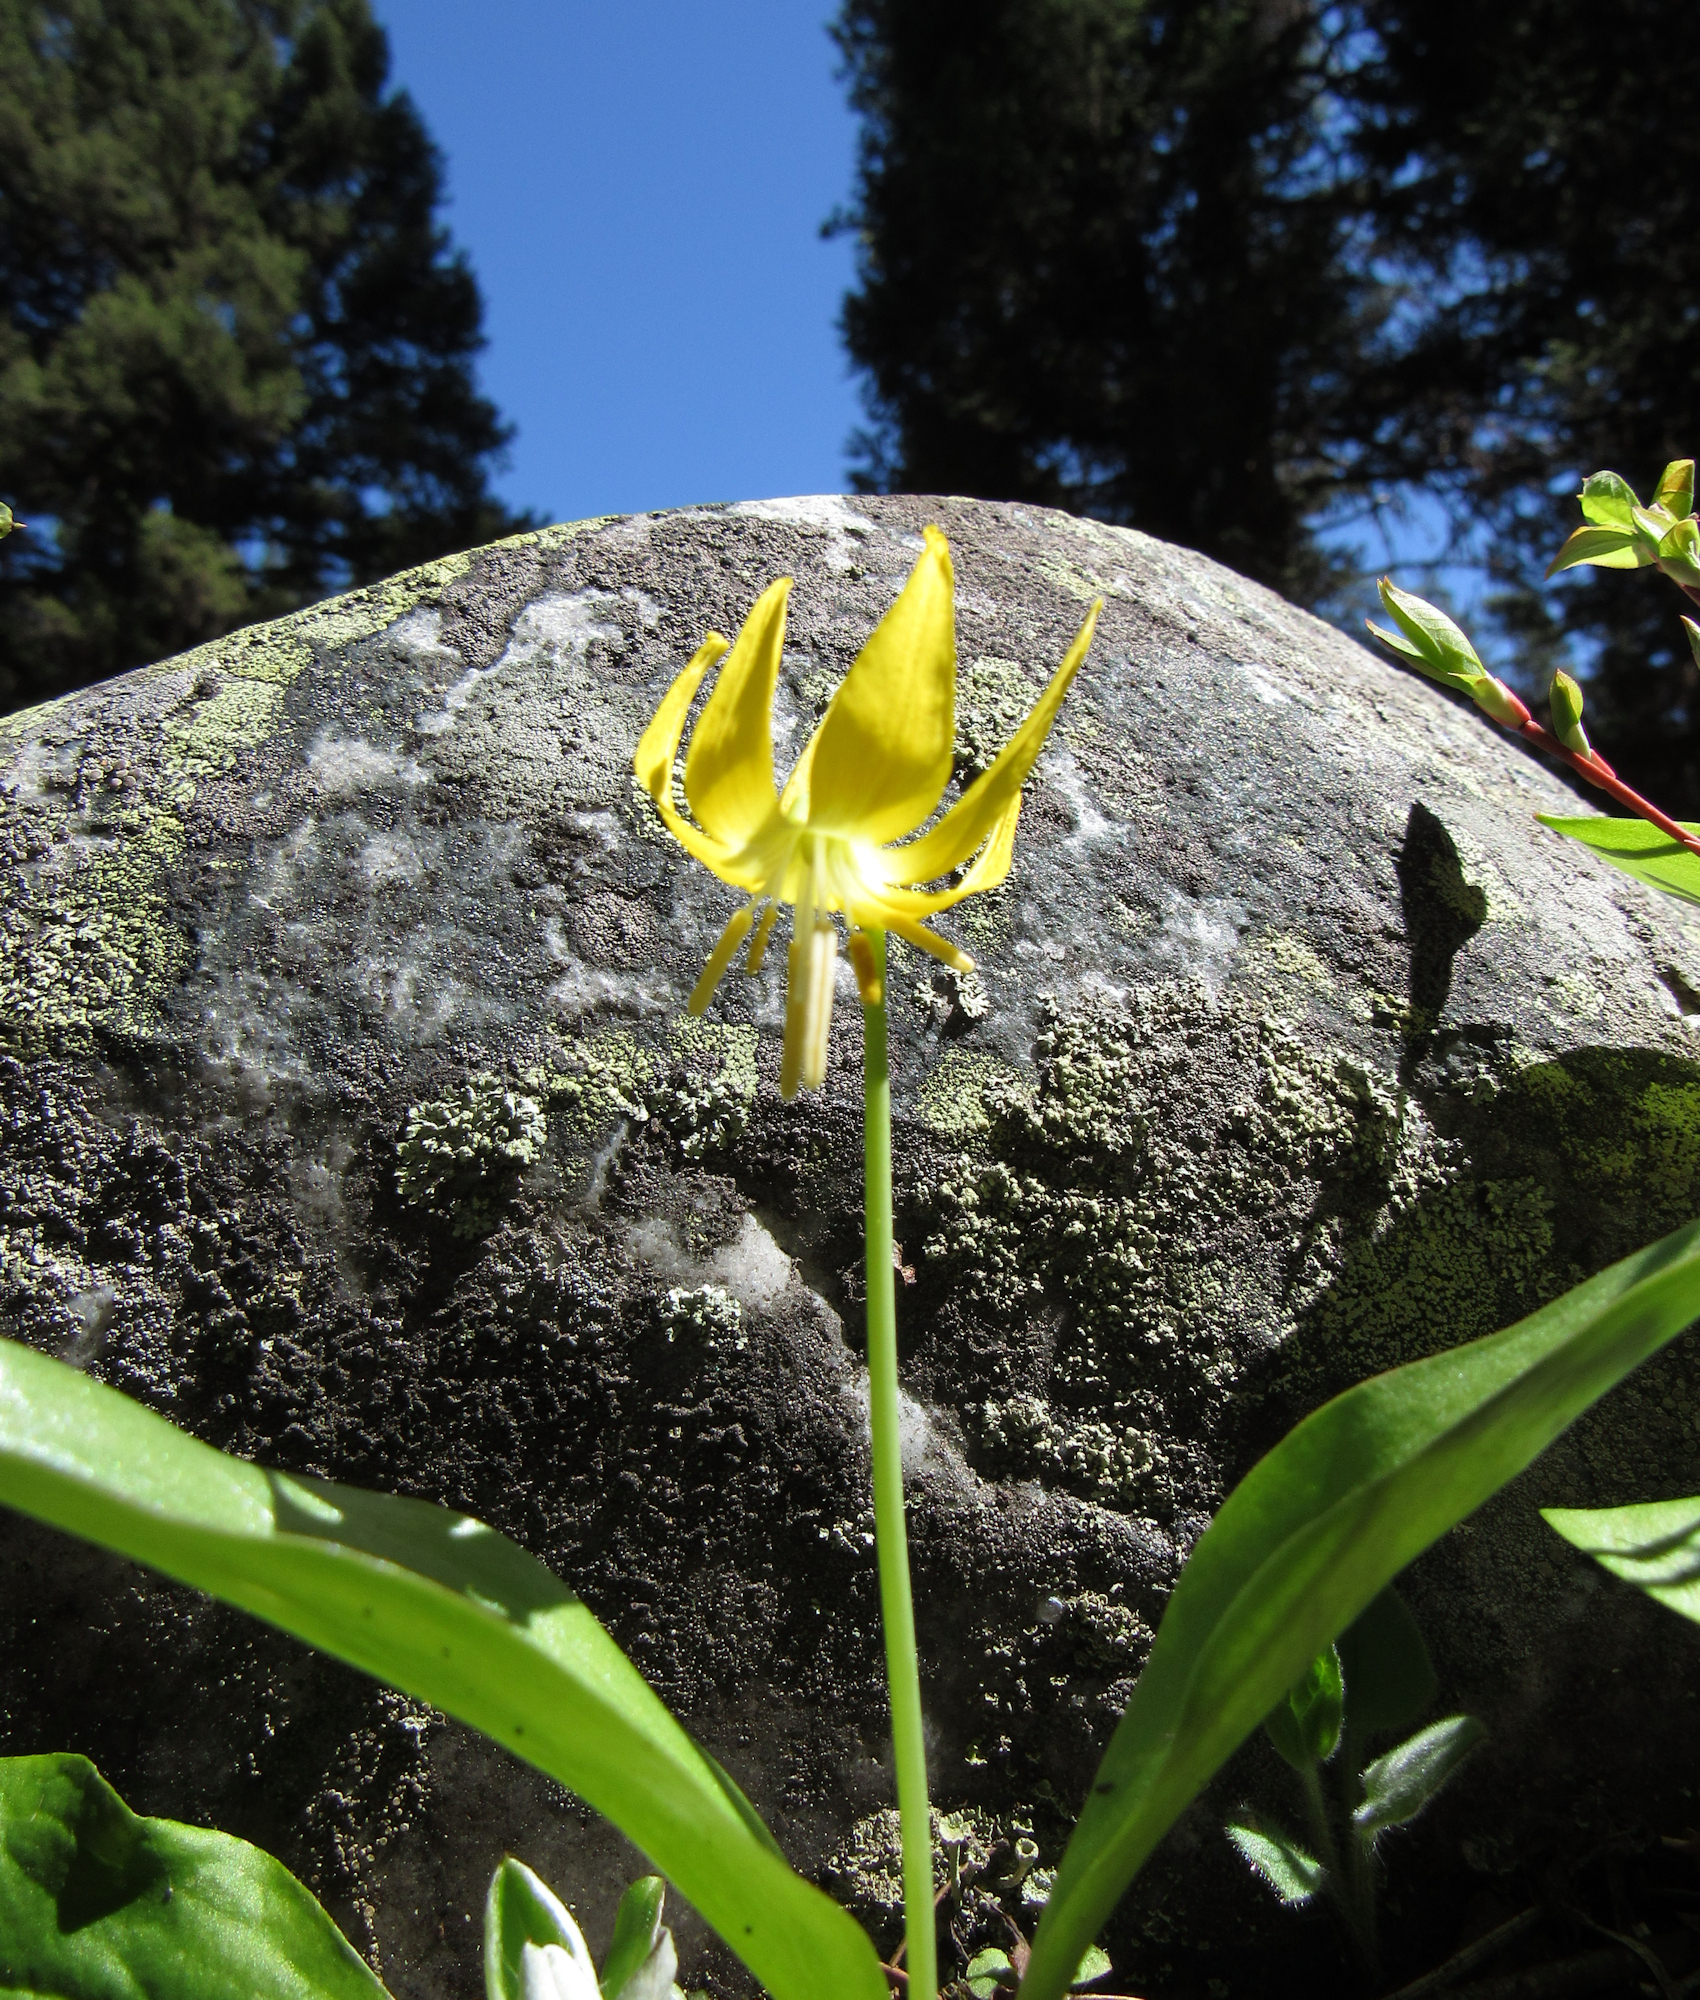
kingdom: Plantae
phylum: Tracheophyta
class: Liliopsida
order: Liliales
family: Liliaceae
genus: Erythronium
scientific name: Erythronium grandiflorum
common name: Avalanche-lily
